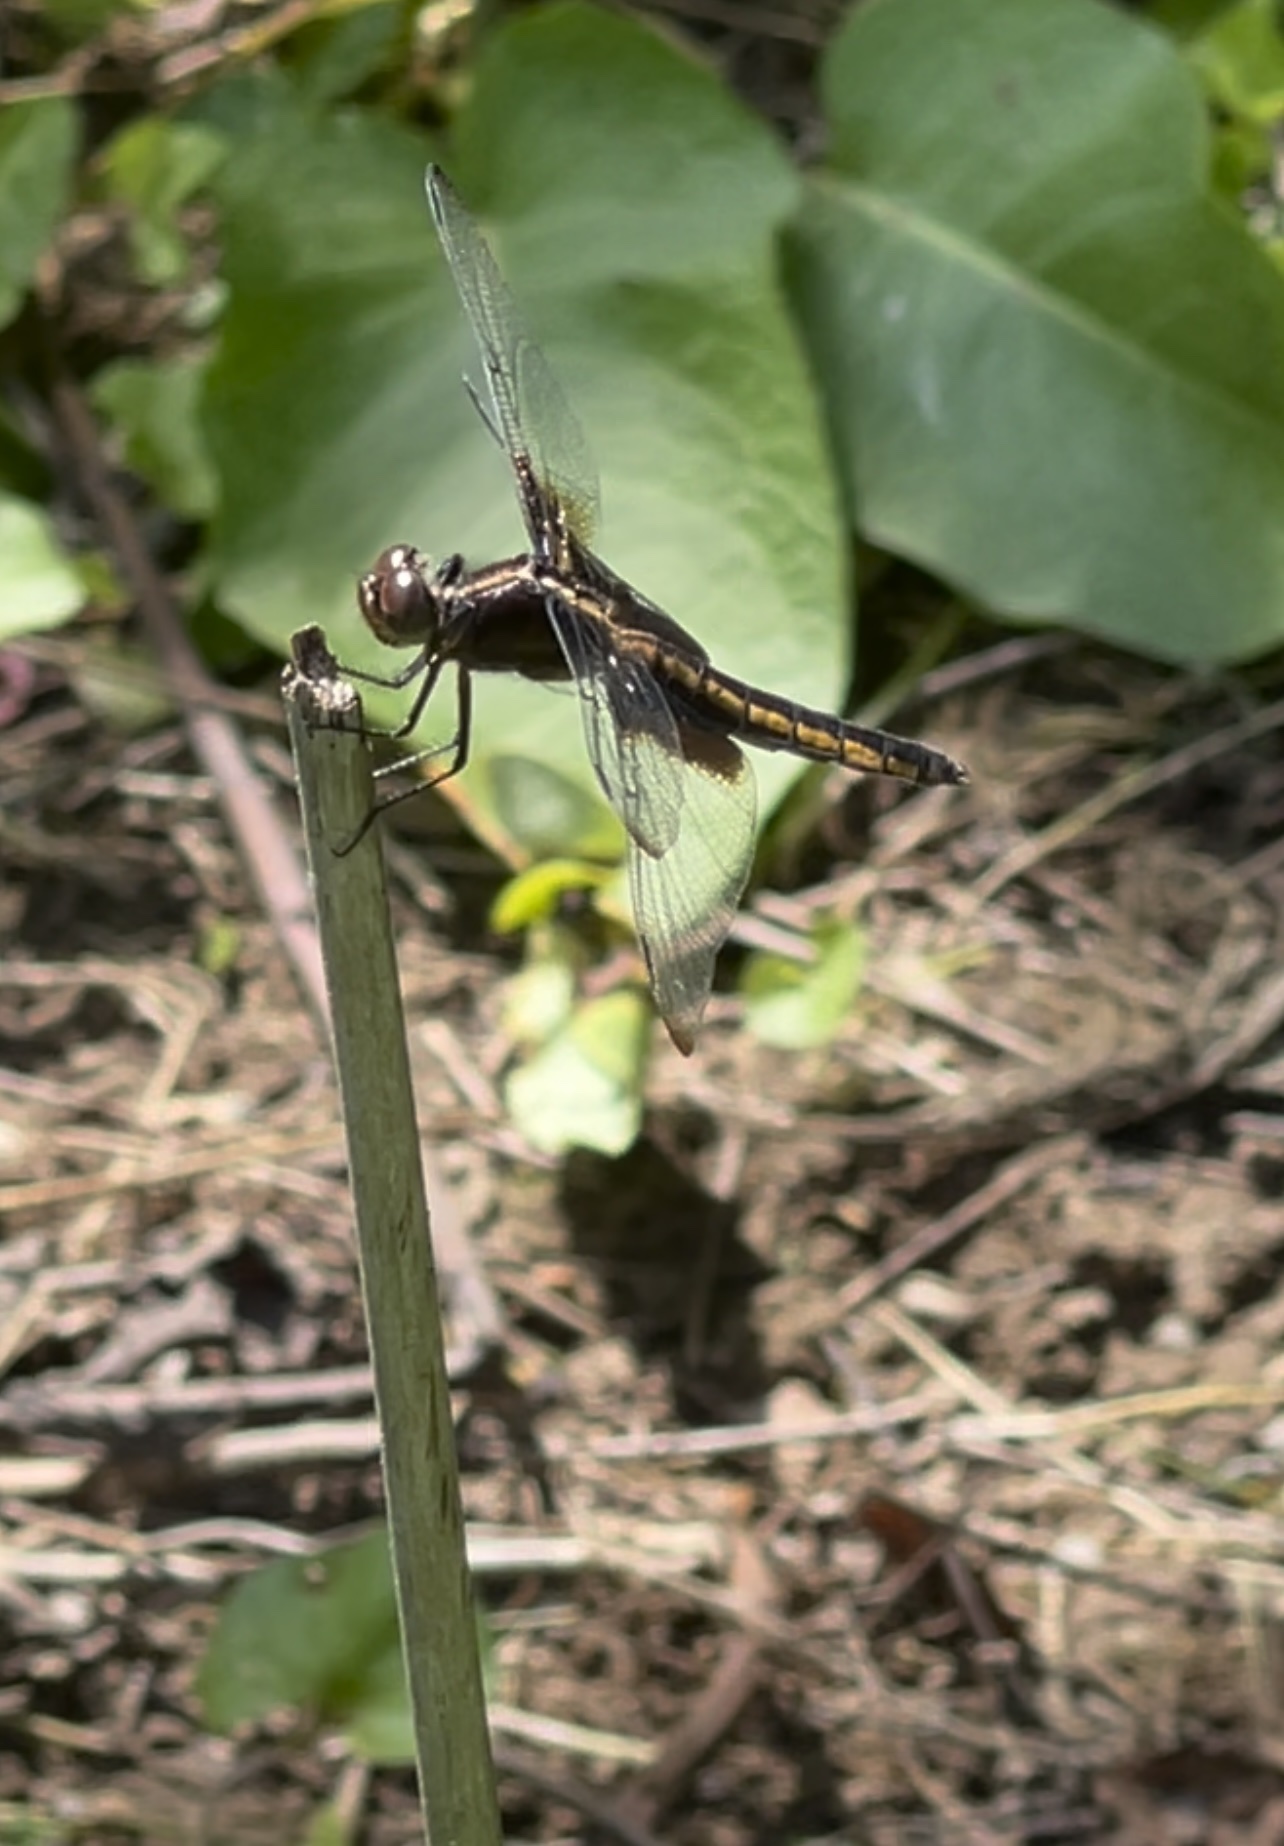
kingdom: Animalia
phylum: Arthropoda
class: Insecta
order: Odonata
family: Libellulidae
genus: Libellula
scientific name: Libellula luctuosa
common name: Widow skimmer
